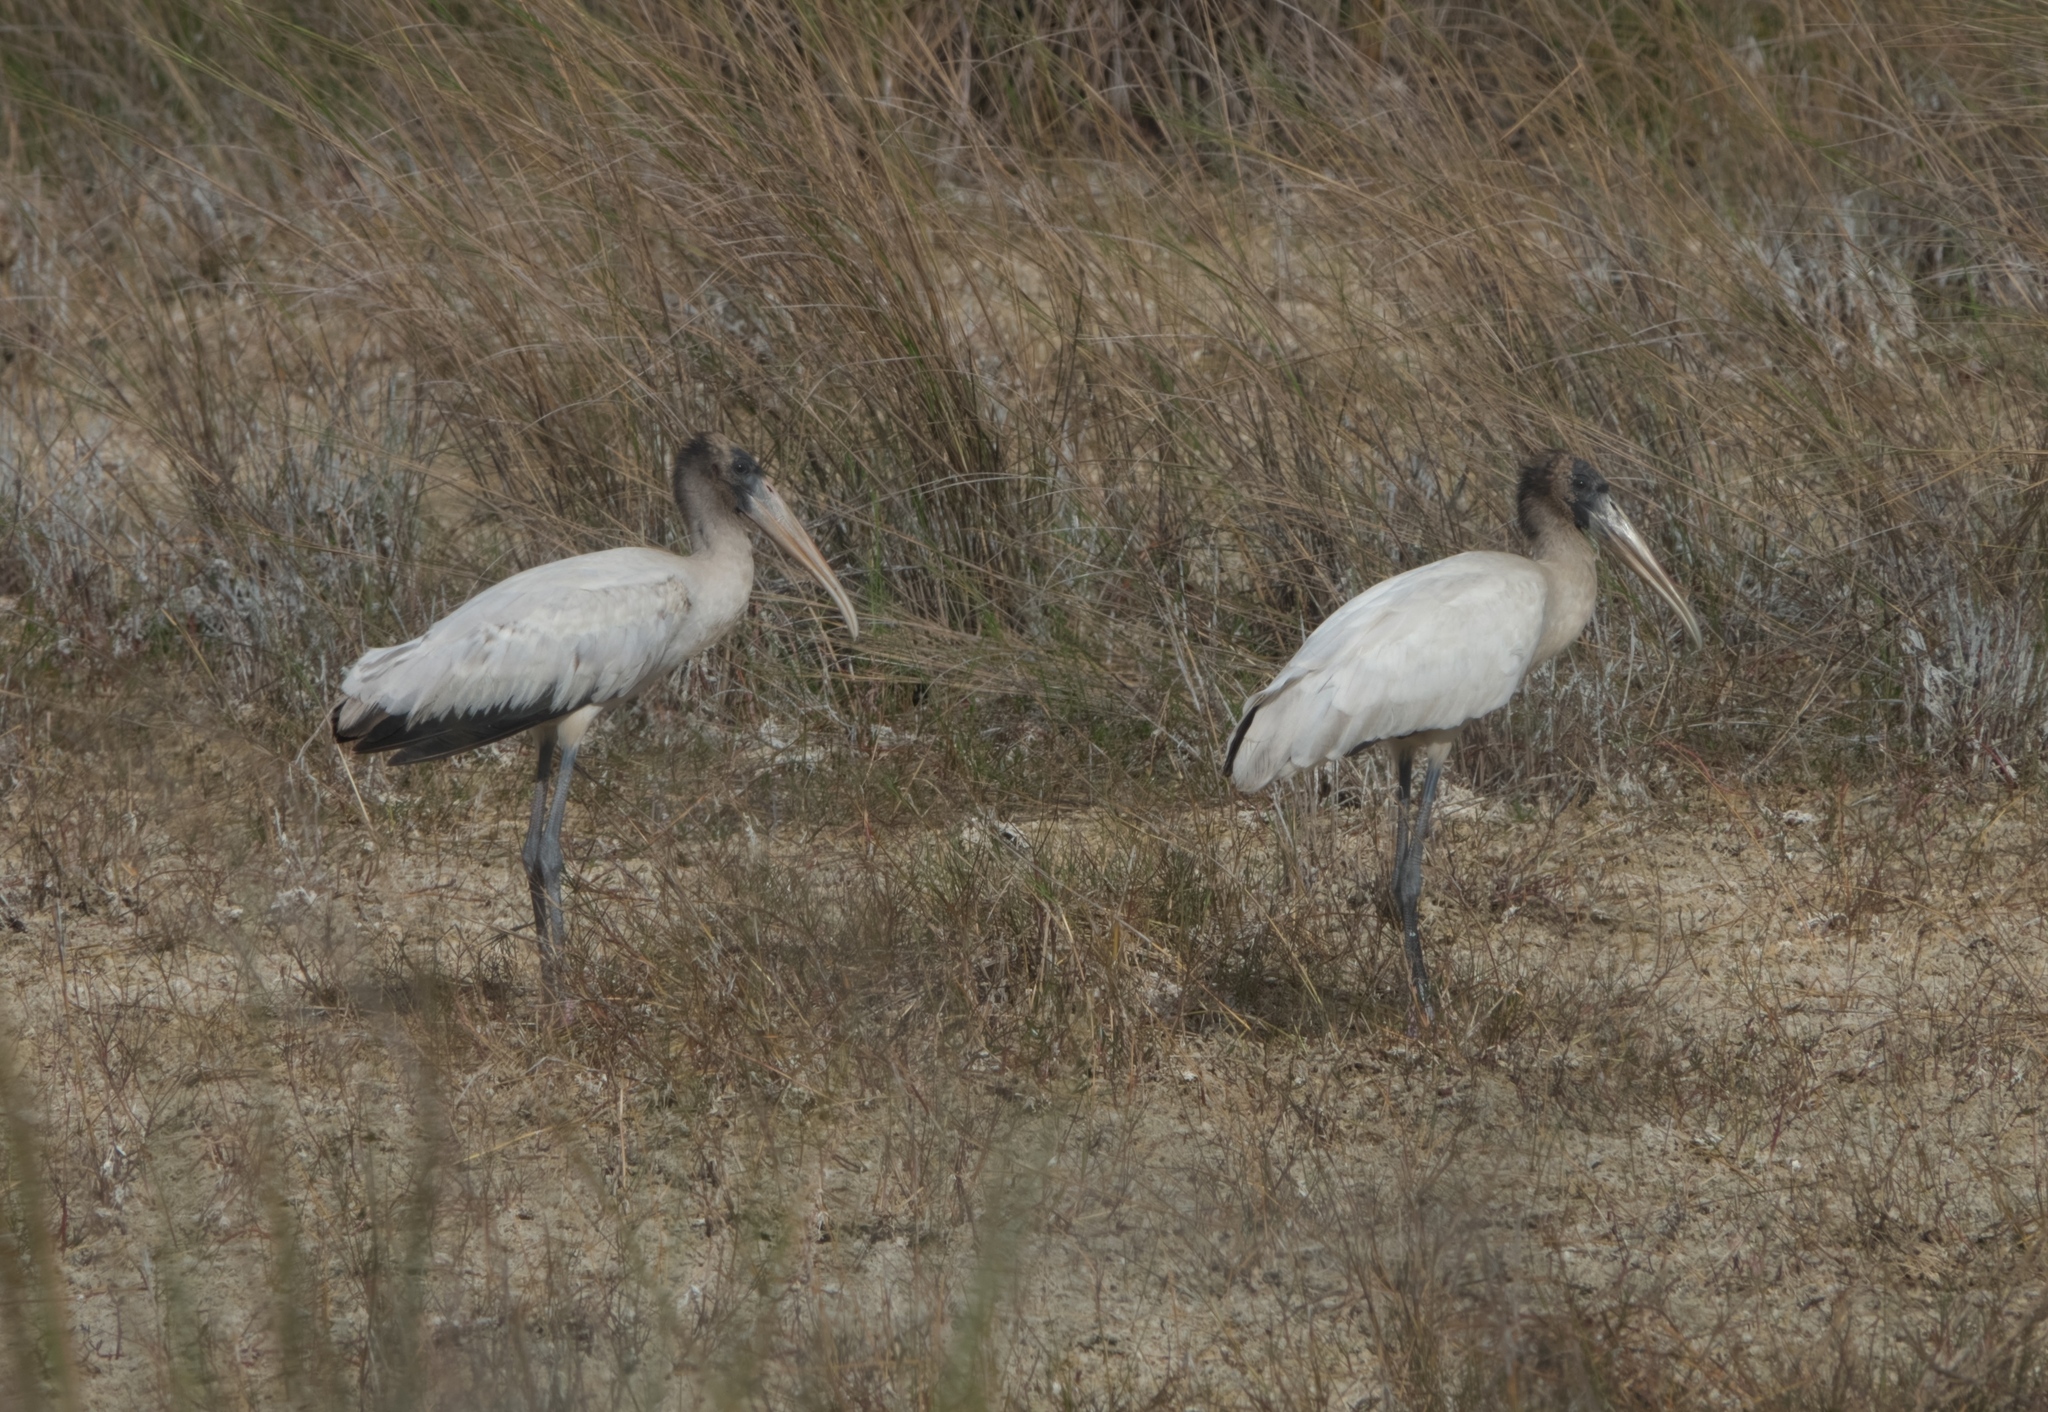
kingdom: Animalia
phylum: Chordata
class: Aves
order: Ciconiiformes
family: Ciconiidae
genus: Mycteria
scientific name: Mycteria americana
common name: Wood stork
